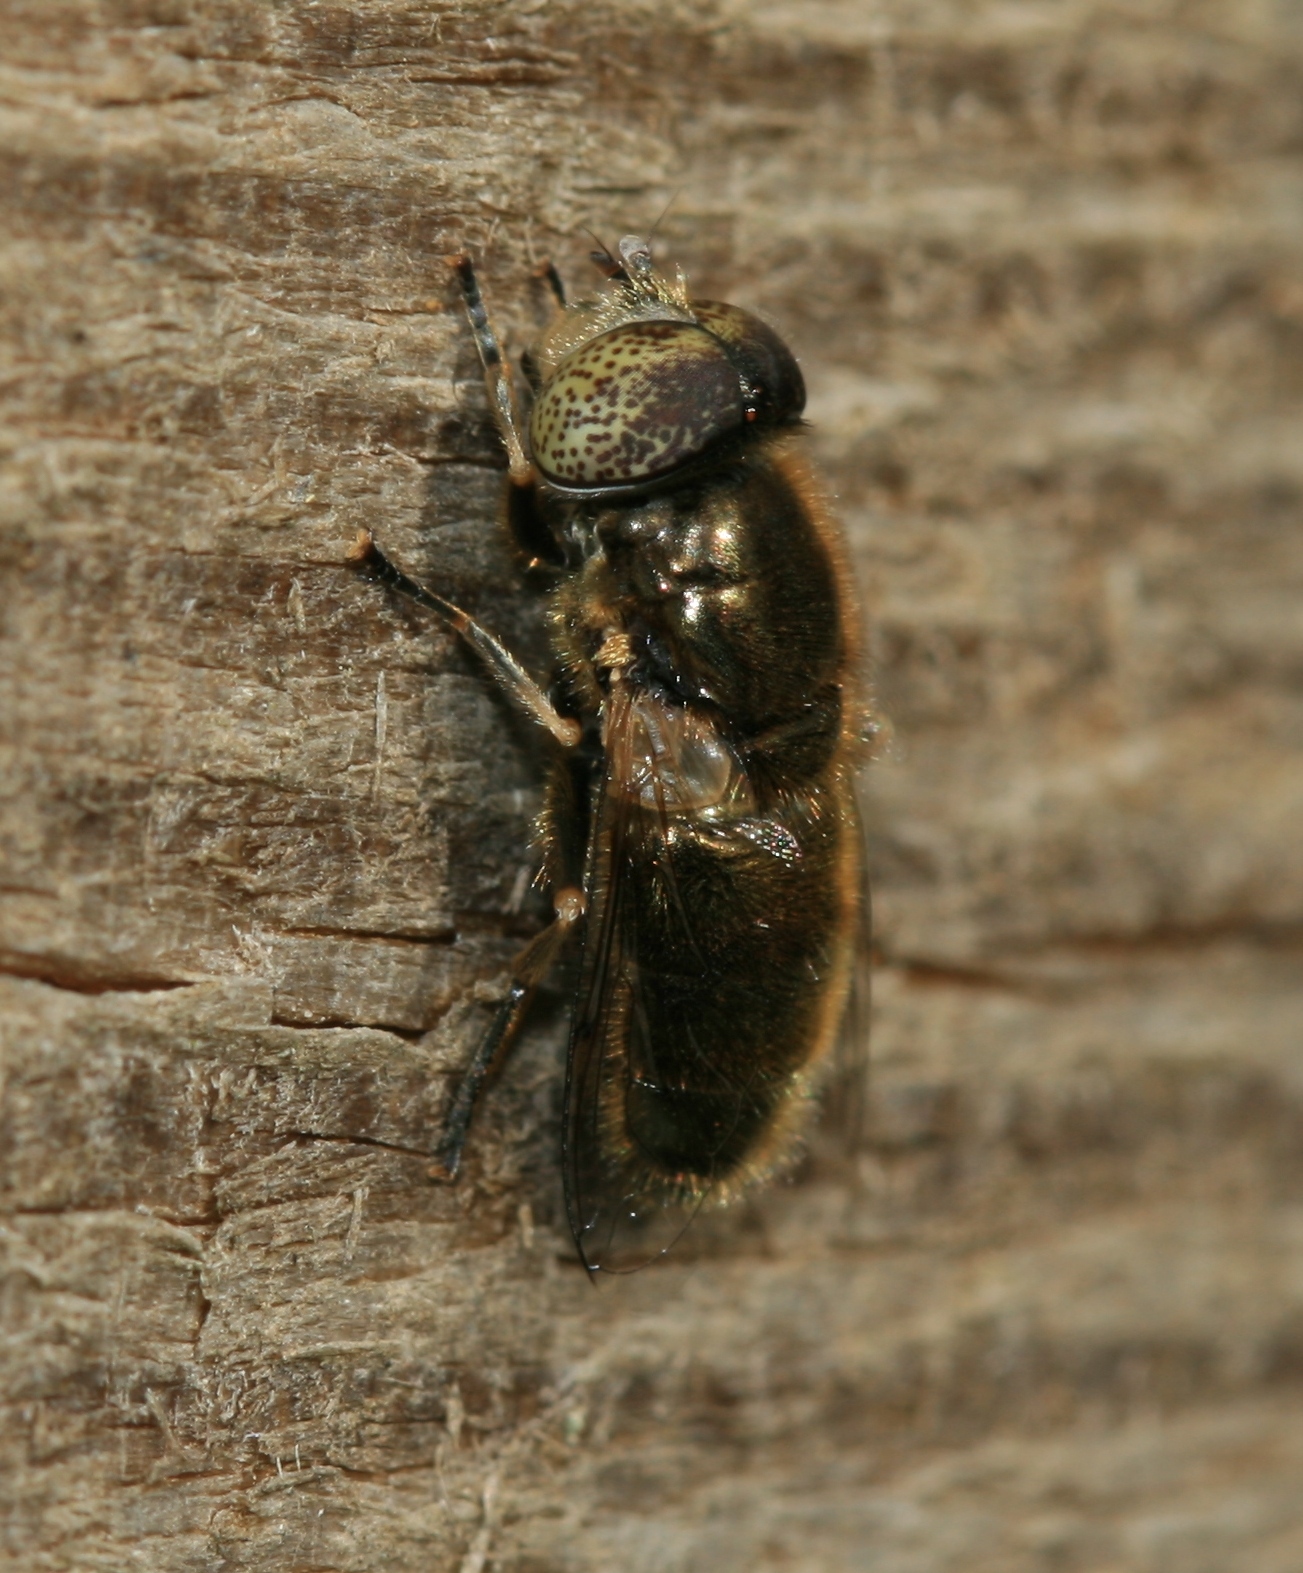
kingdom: Animalia
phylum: Arthropoda
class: Insecta
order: Diptera
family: Syrphidae
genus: Eristalinus
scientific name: Eristalinus aeneus
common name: Syrphid fly
